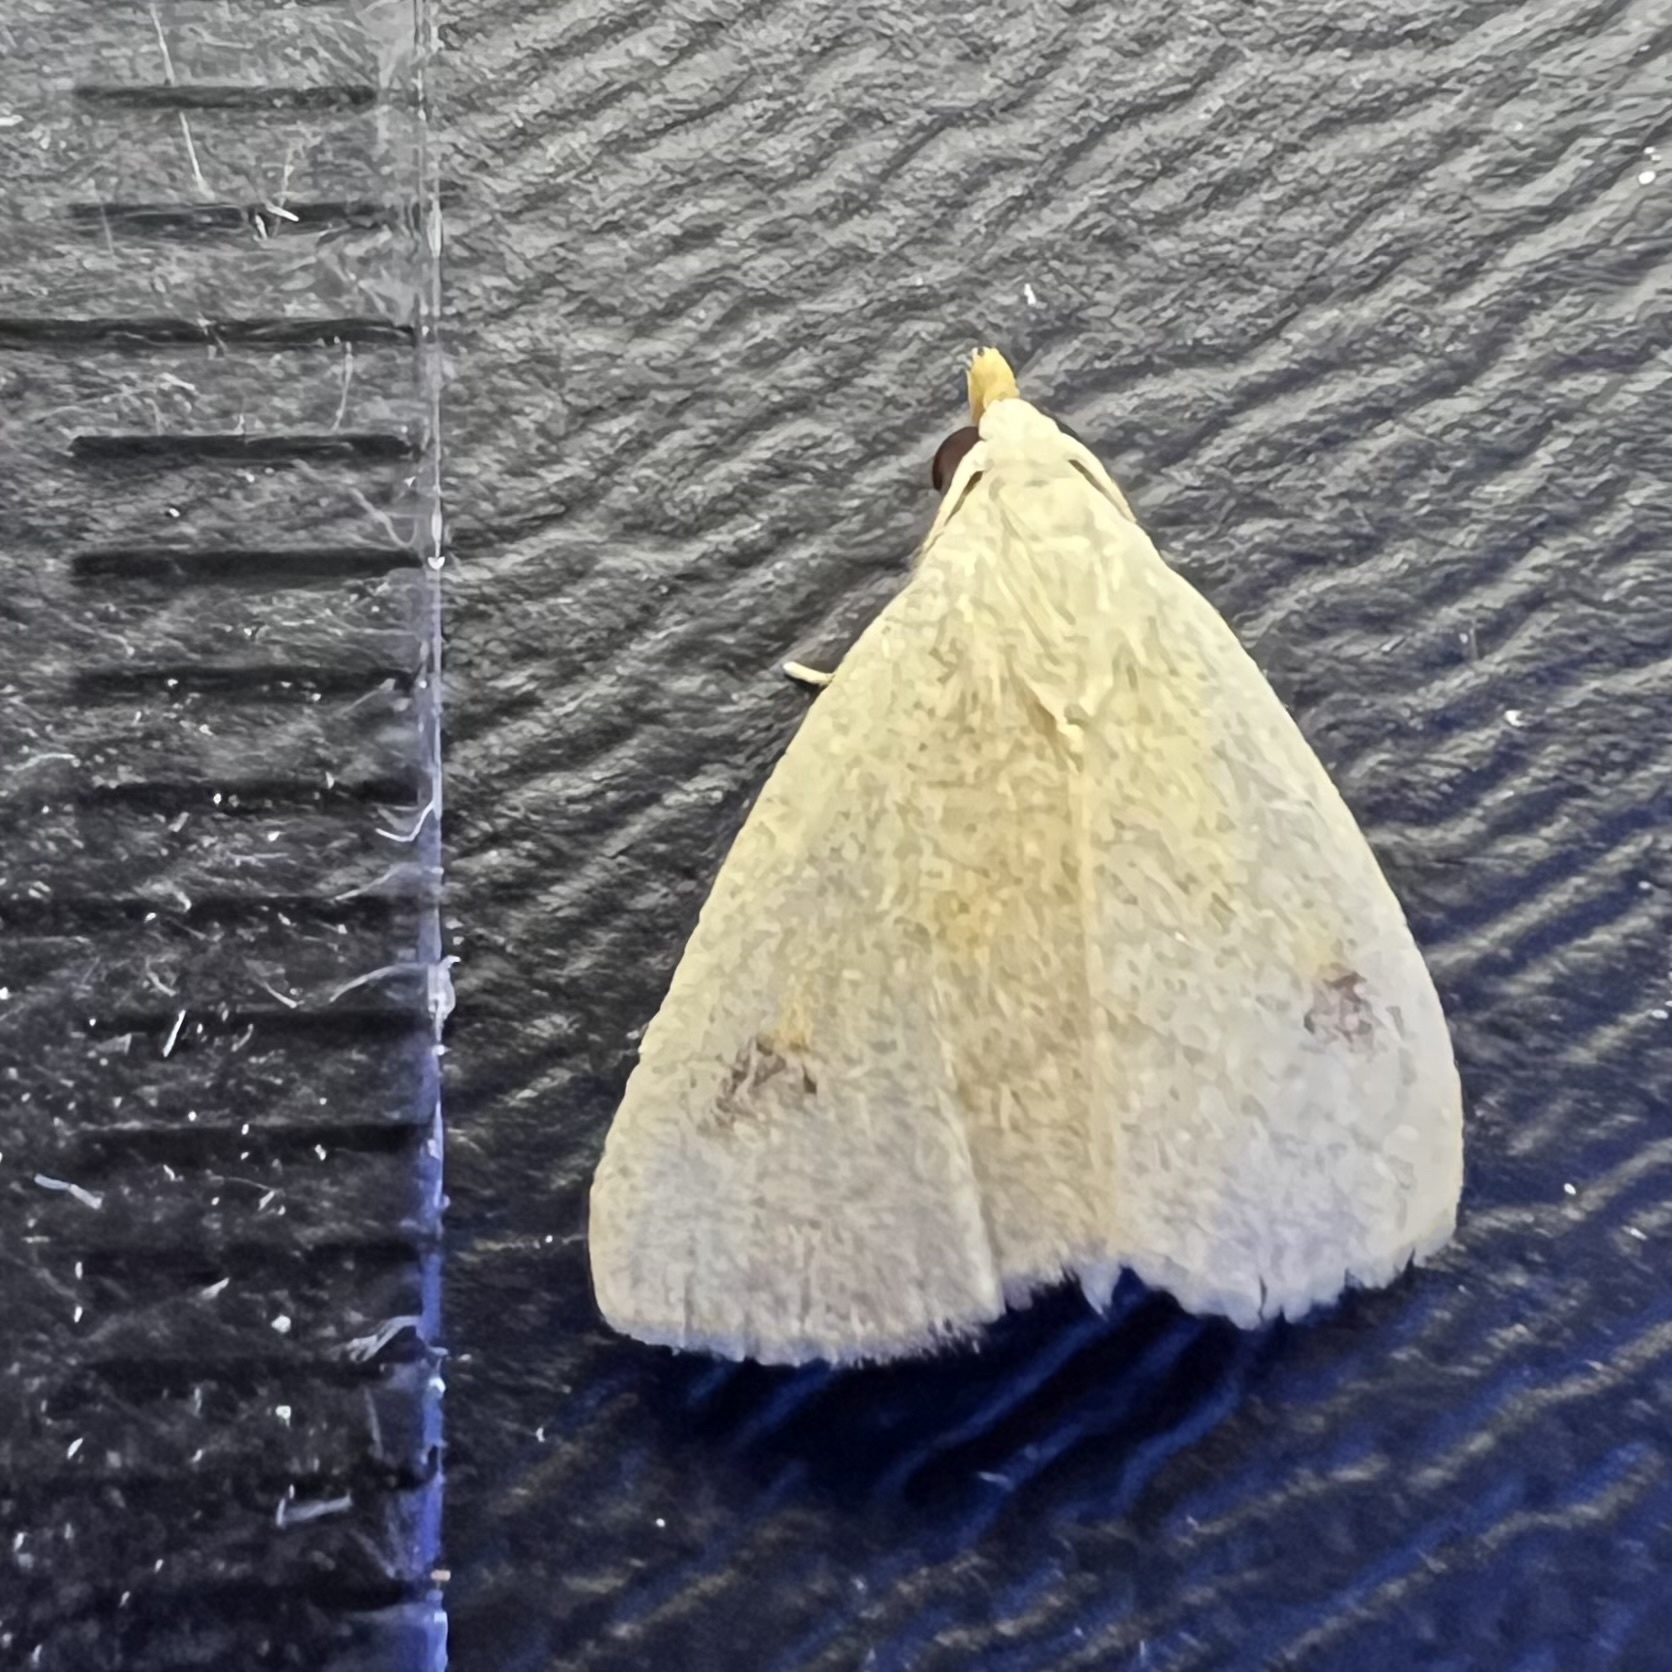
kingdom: Animalia
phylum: Arthropoda
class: Insecta
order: Lepidoptera
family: Erebidae
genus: Rivula
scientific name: Rivula propinqualis
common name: Spotted grass moth
